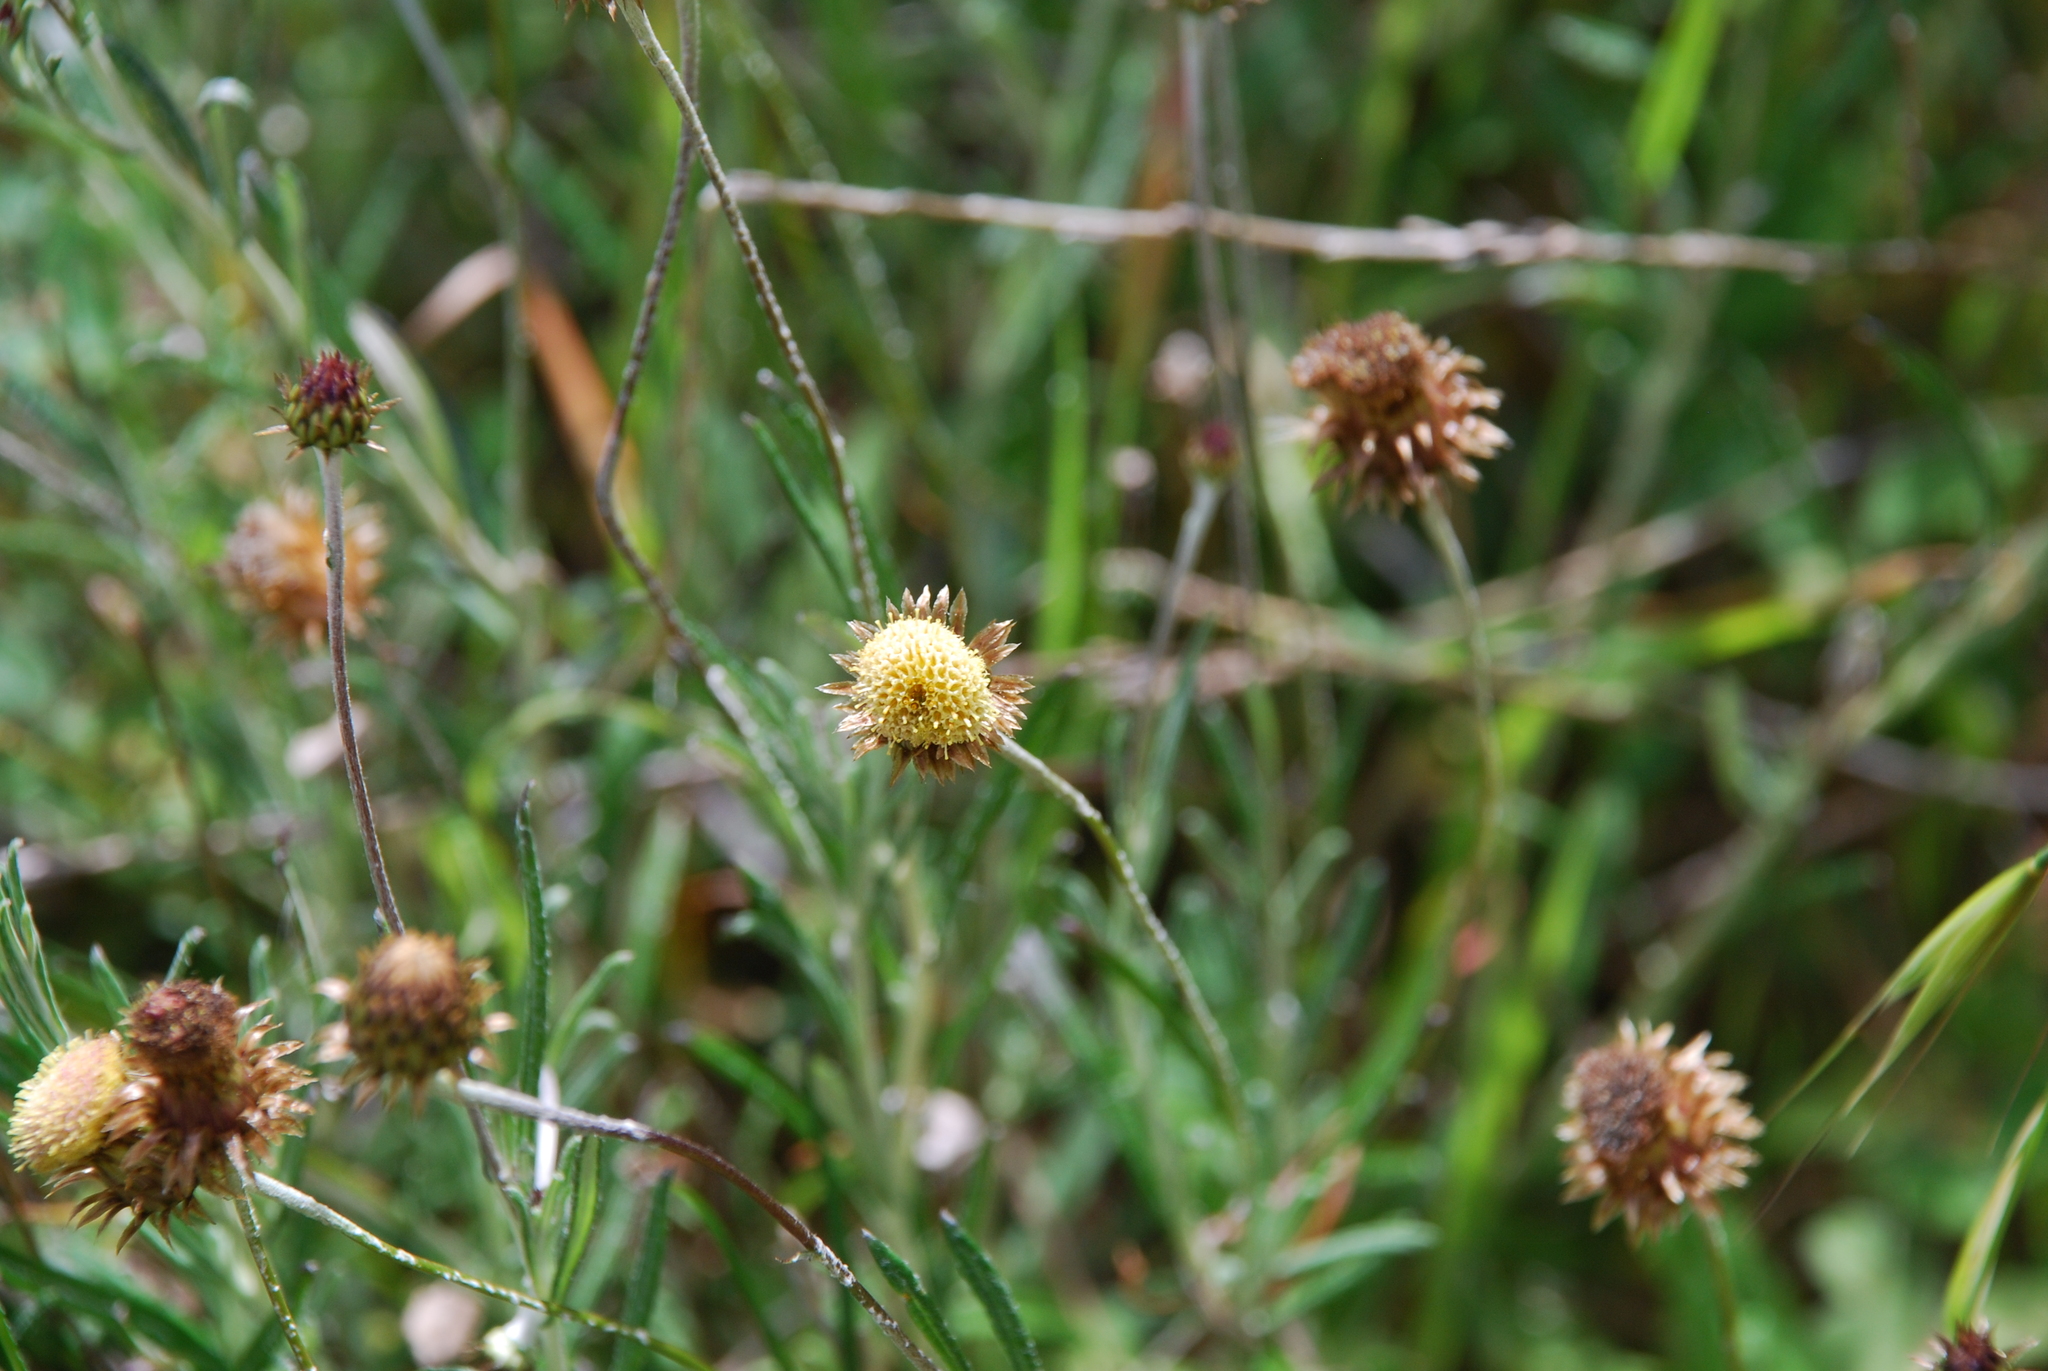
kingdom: Plantae
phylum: Tracheophyta
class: Magnoliopsida
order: Asterales
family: Asteraceae
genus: Phagnalon
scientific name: Phagnalon saxatile
